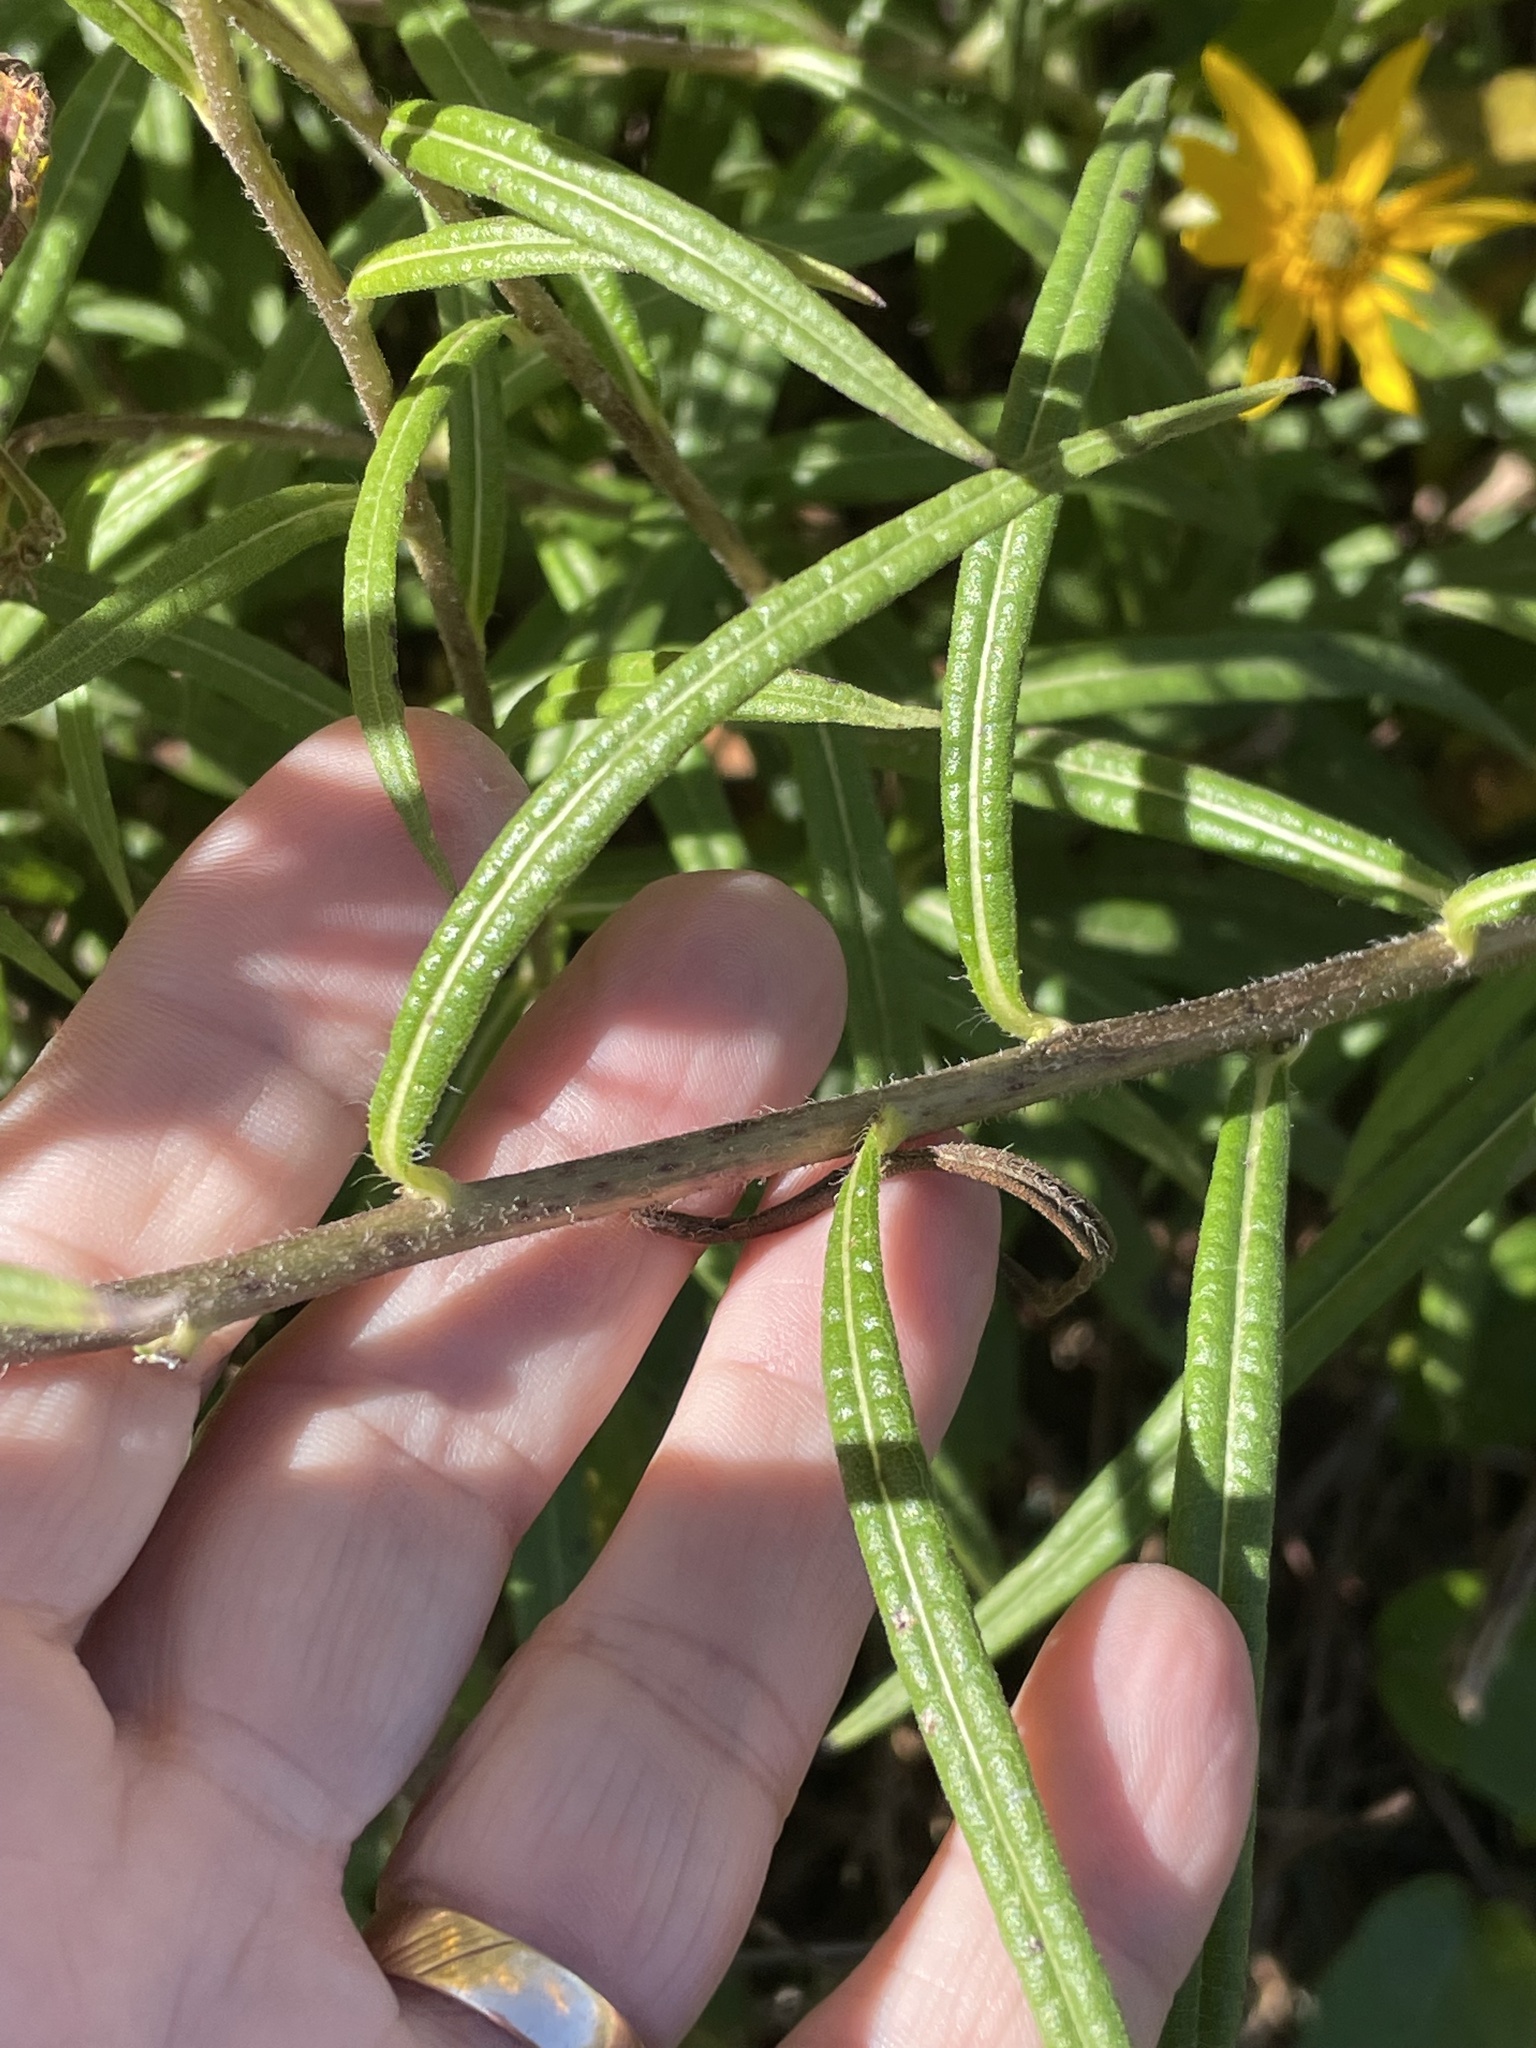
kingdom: Plantae
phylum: Tracheophyta
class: Magnoliopsida
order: Asterales
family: Asteraceae
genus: Helianthus
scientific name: Helianthus angustifolius
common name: Swamp sunflower
